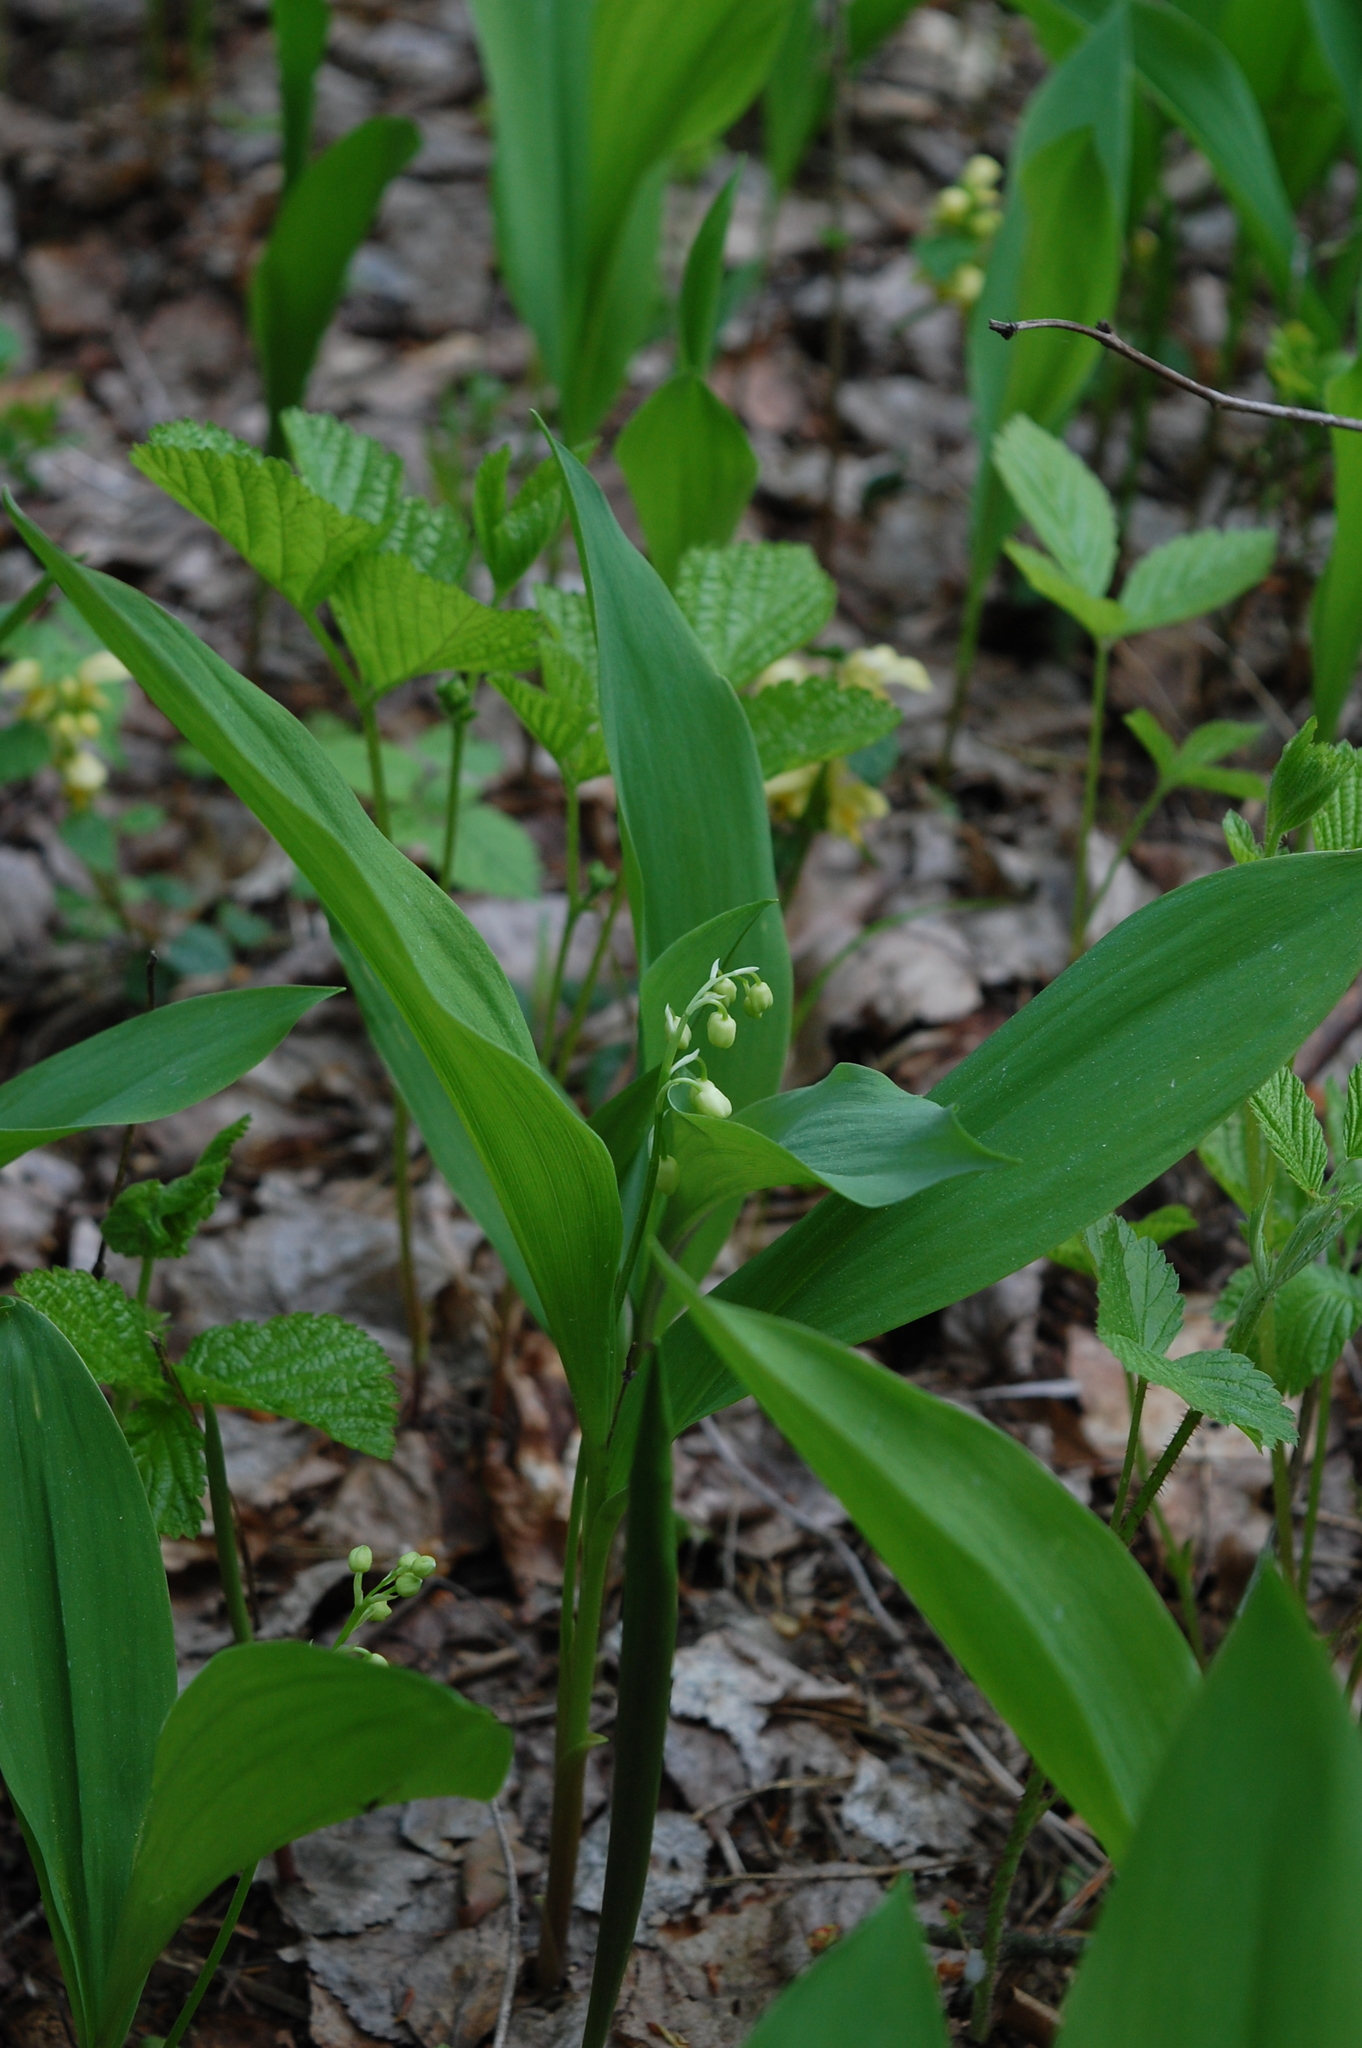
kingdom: Plantae
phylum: Tracheophyta
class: Liliopsida
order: Asparagales
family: Asparagaceae
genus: Convallaria
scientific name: Convallaria majalis
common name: Lily-of-the-valley
